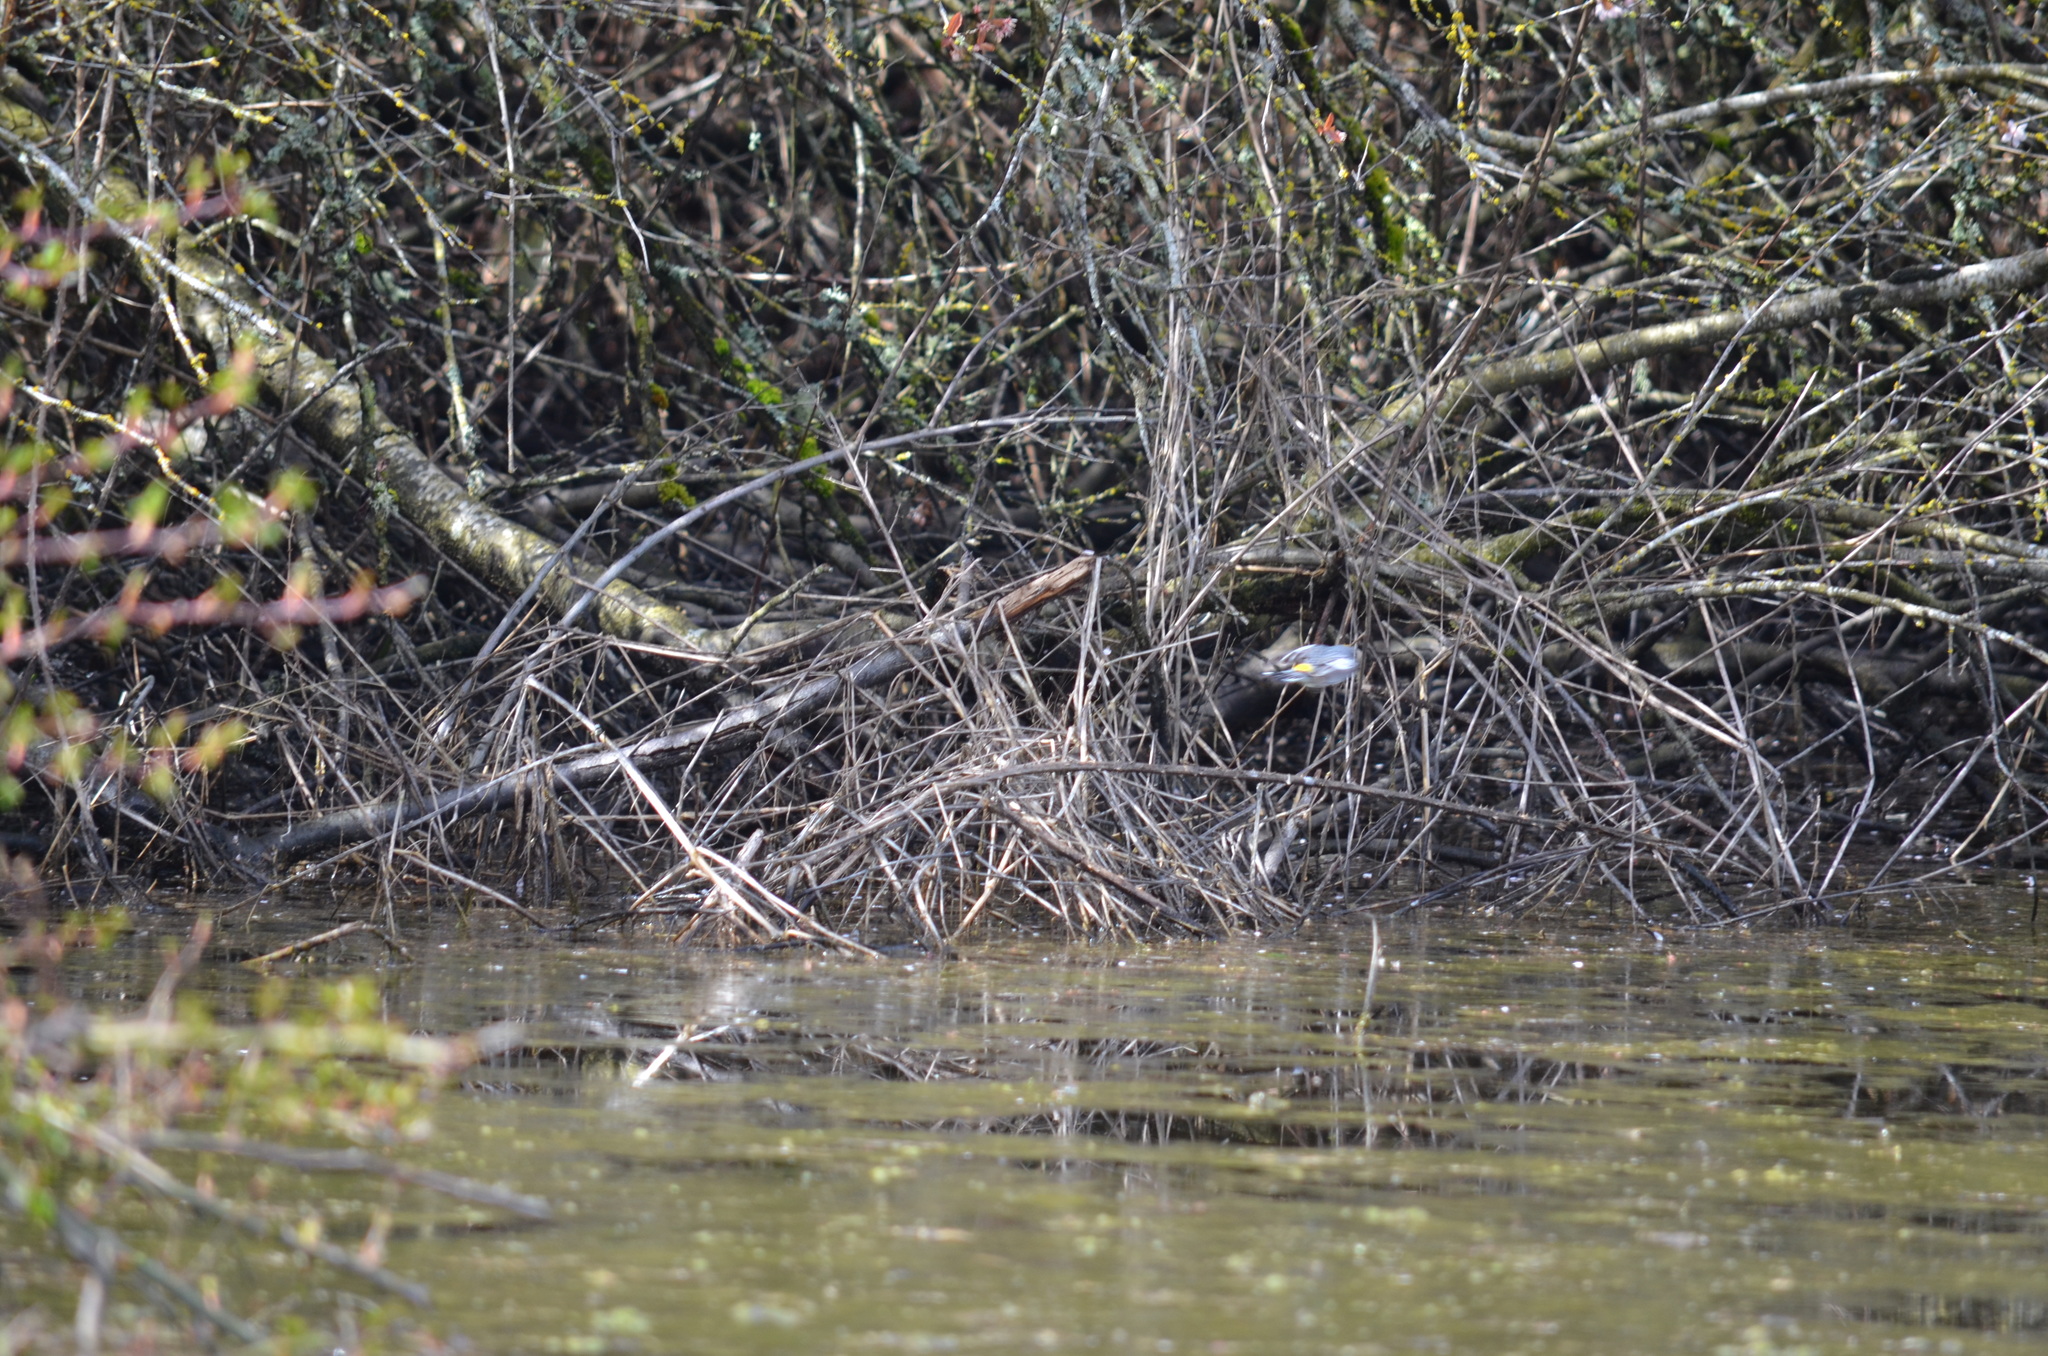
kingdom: Animalia
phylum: Chordata
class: Aves
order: Passeriformes
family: Parulidae
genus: Setophaga
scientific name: Setophaga coronata
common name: Myrtle warbler
